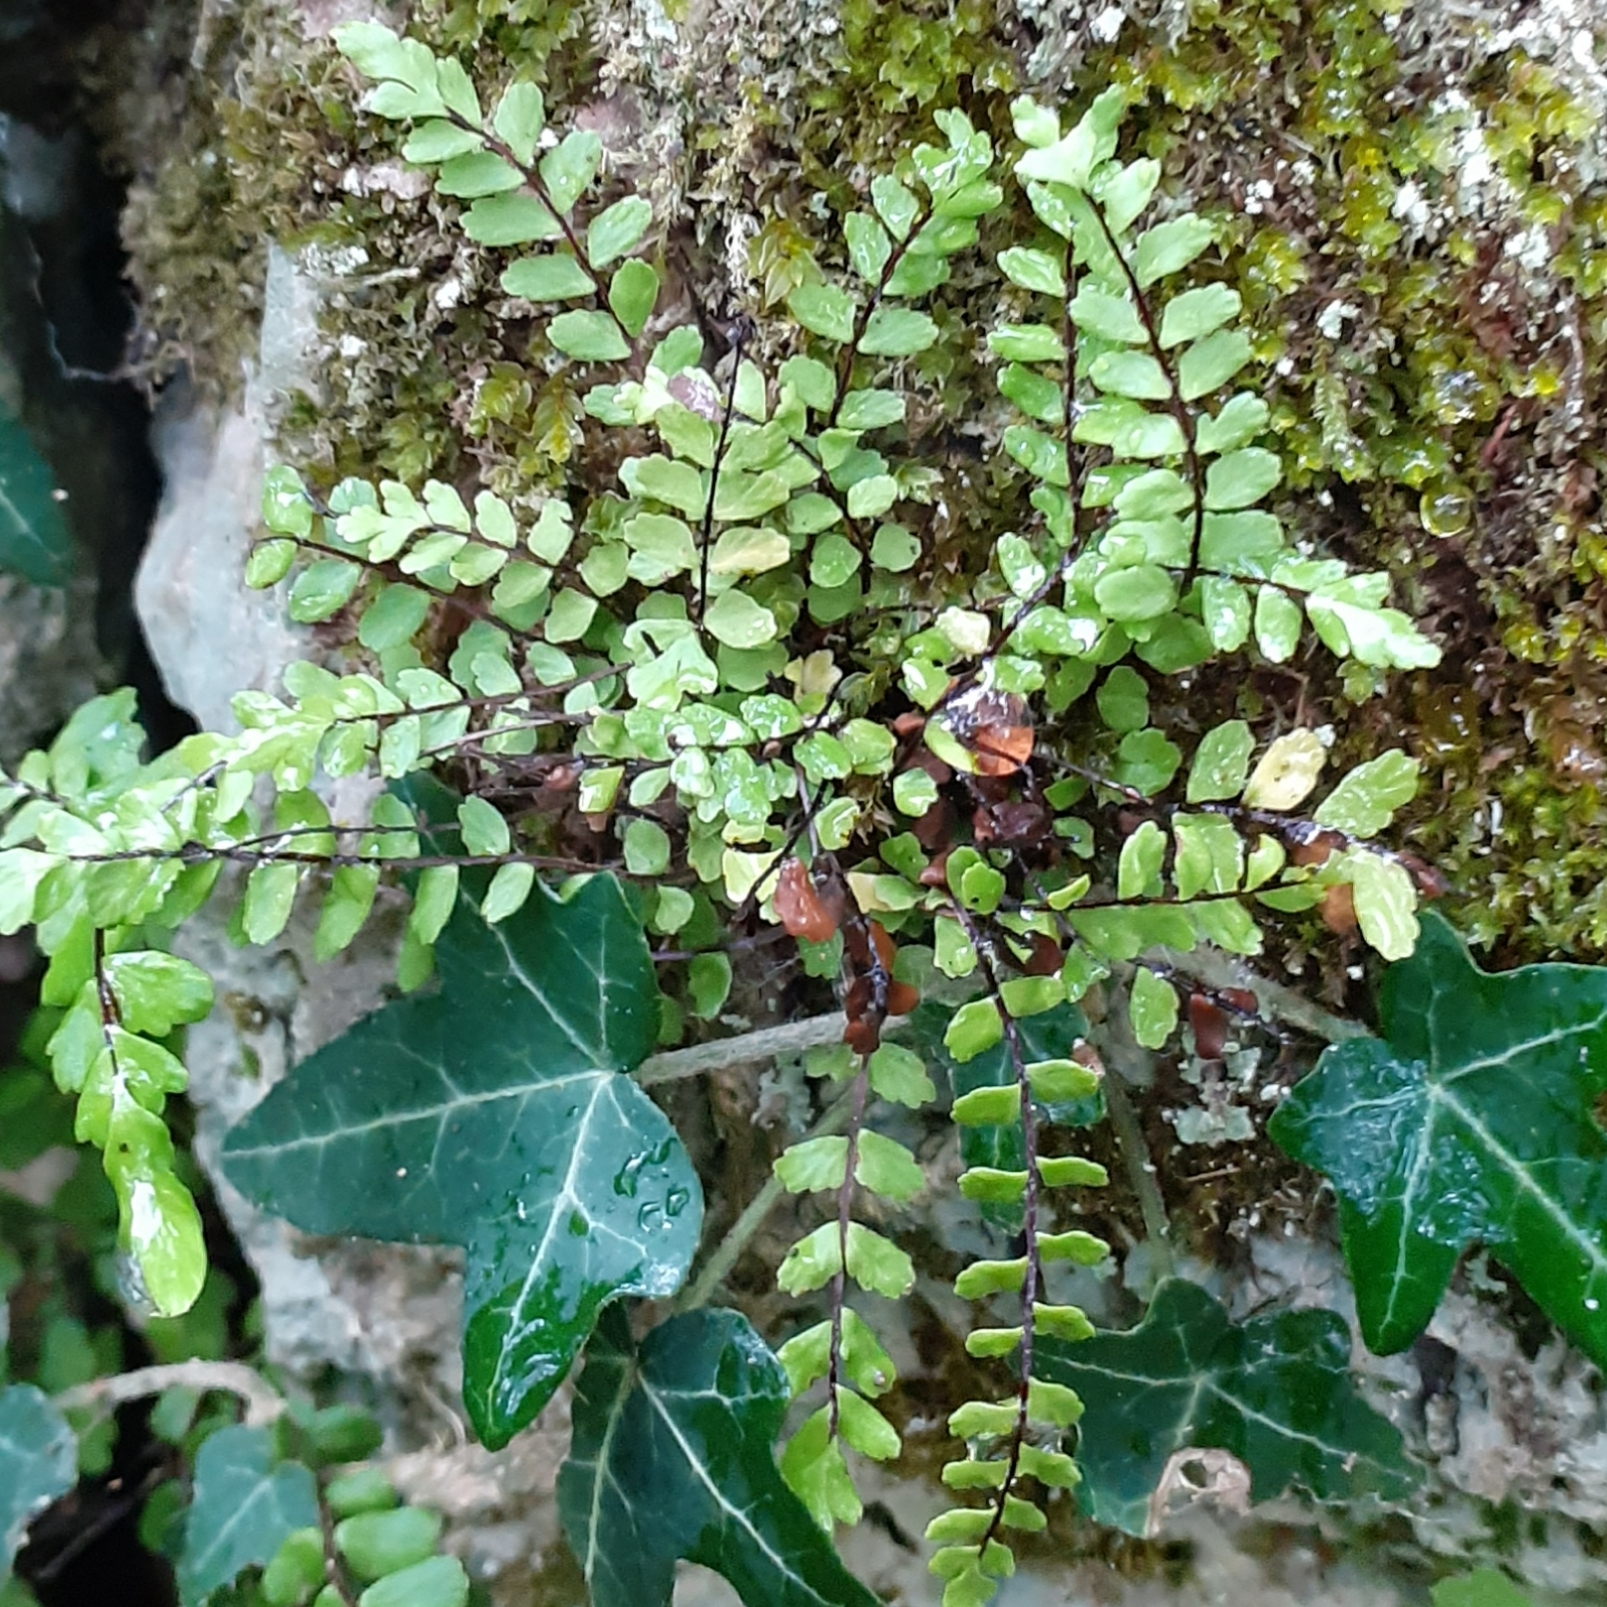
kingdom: Plantae
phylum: Tracheophyta
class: Polypodiopsida
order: Polypodiales
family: Aspleniaceae
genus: Asplenium
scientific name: Asplenium trichomanes
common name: Maidenhair spleenwort
